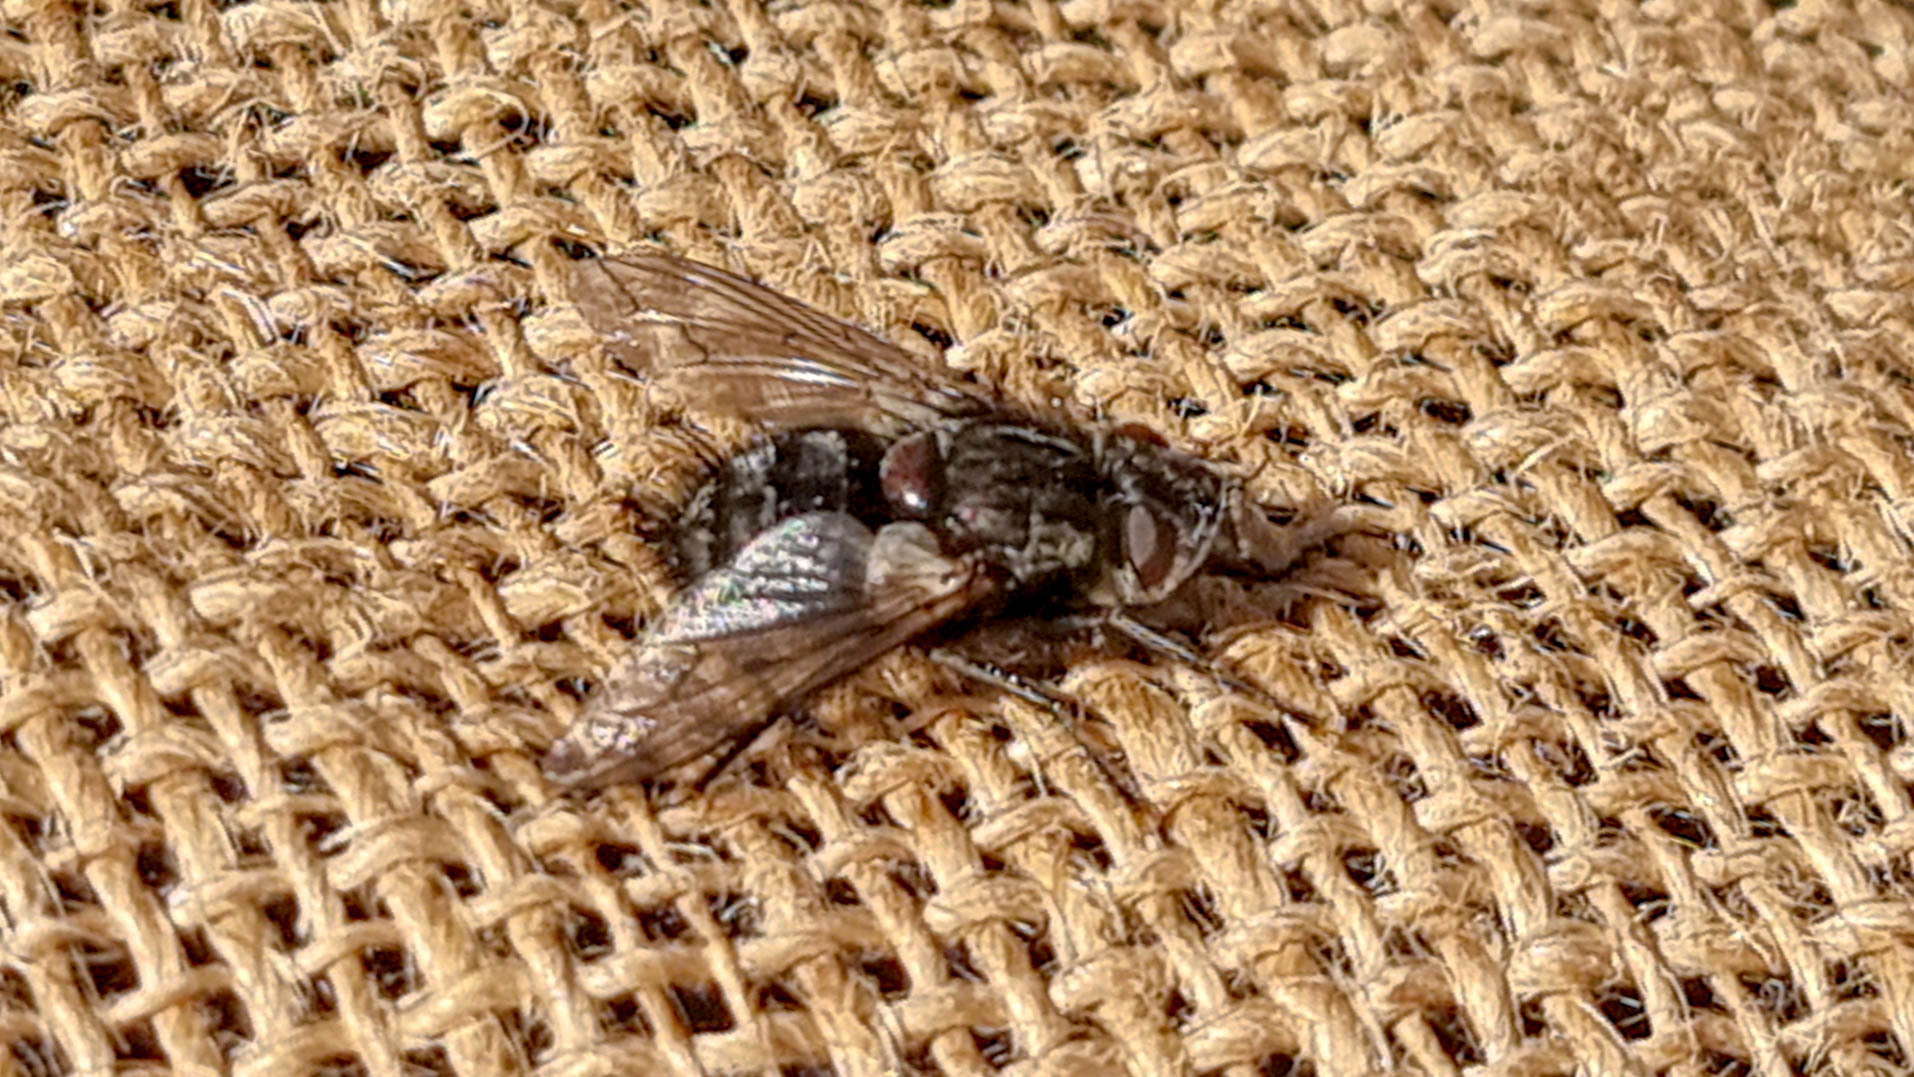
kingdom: Animalia
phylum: Arthropoda
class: Insecta
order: Diptera
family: Tachinidae
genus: Panzeria
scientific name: Panzeria puparum
